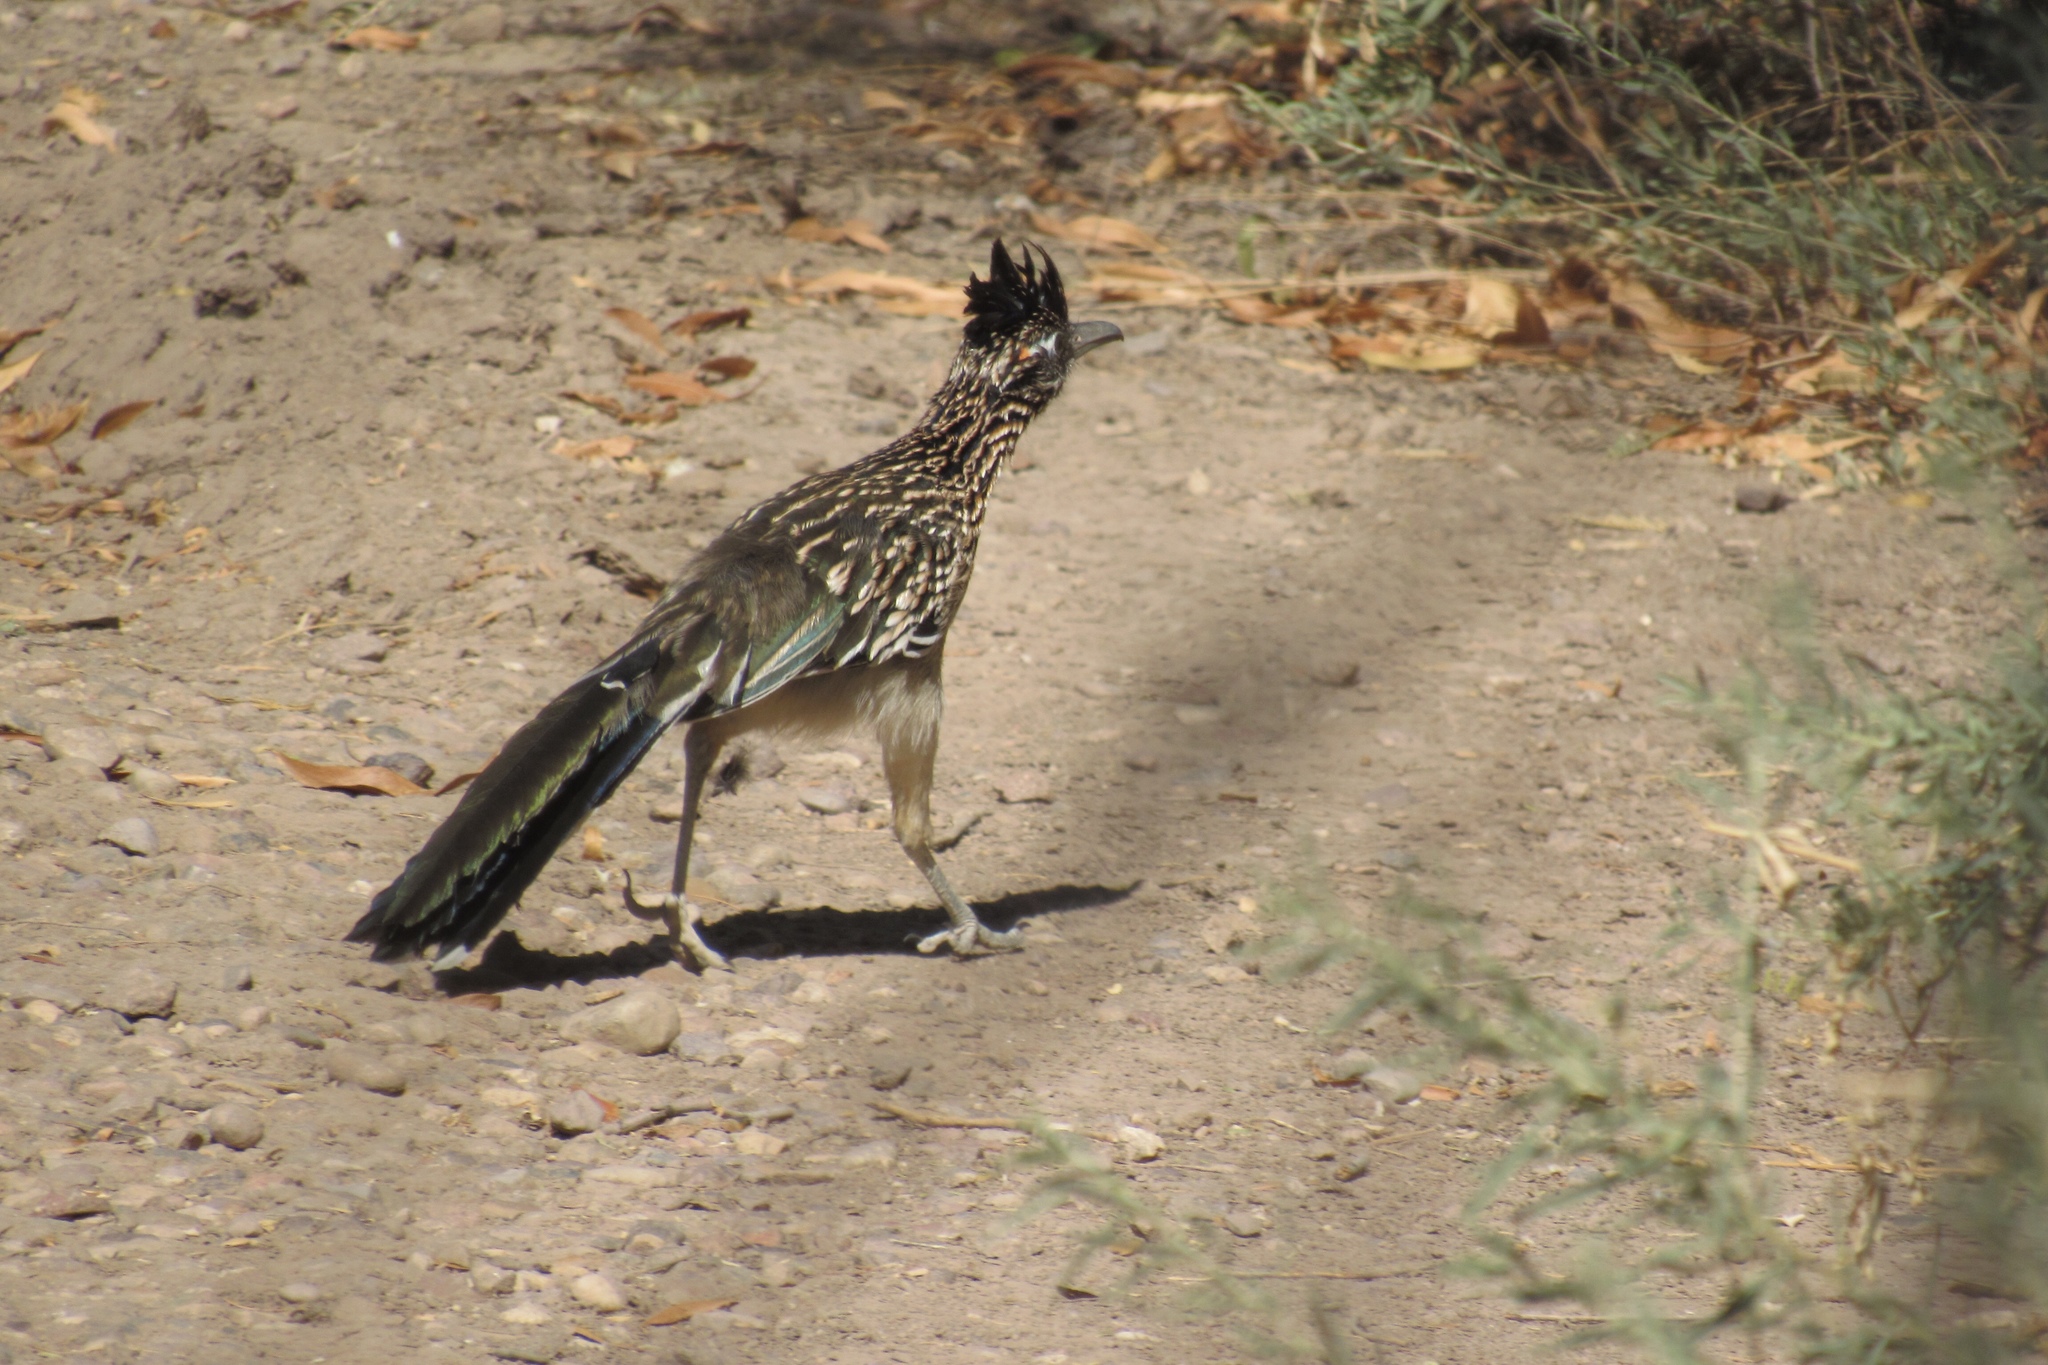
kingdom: Animalia
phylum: Chordata
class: Aves
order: Cuculiformes
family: Cuculidae
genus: Geococcyx
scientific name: Geococcyx californianus
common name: Greater roadrunner
